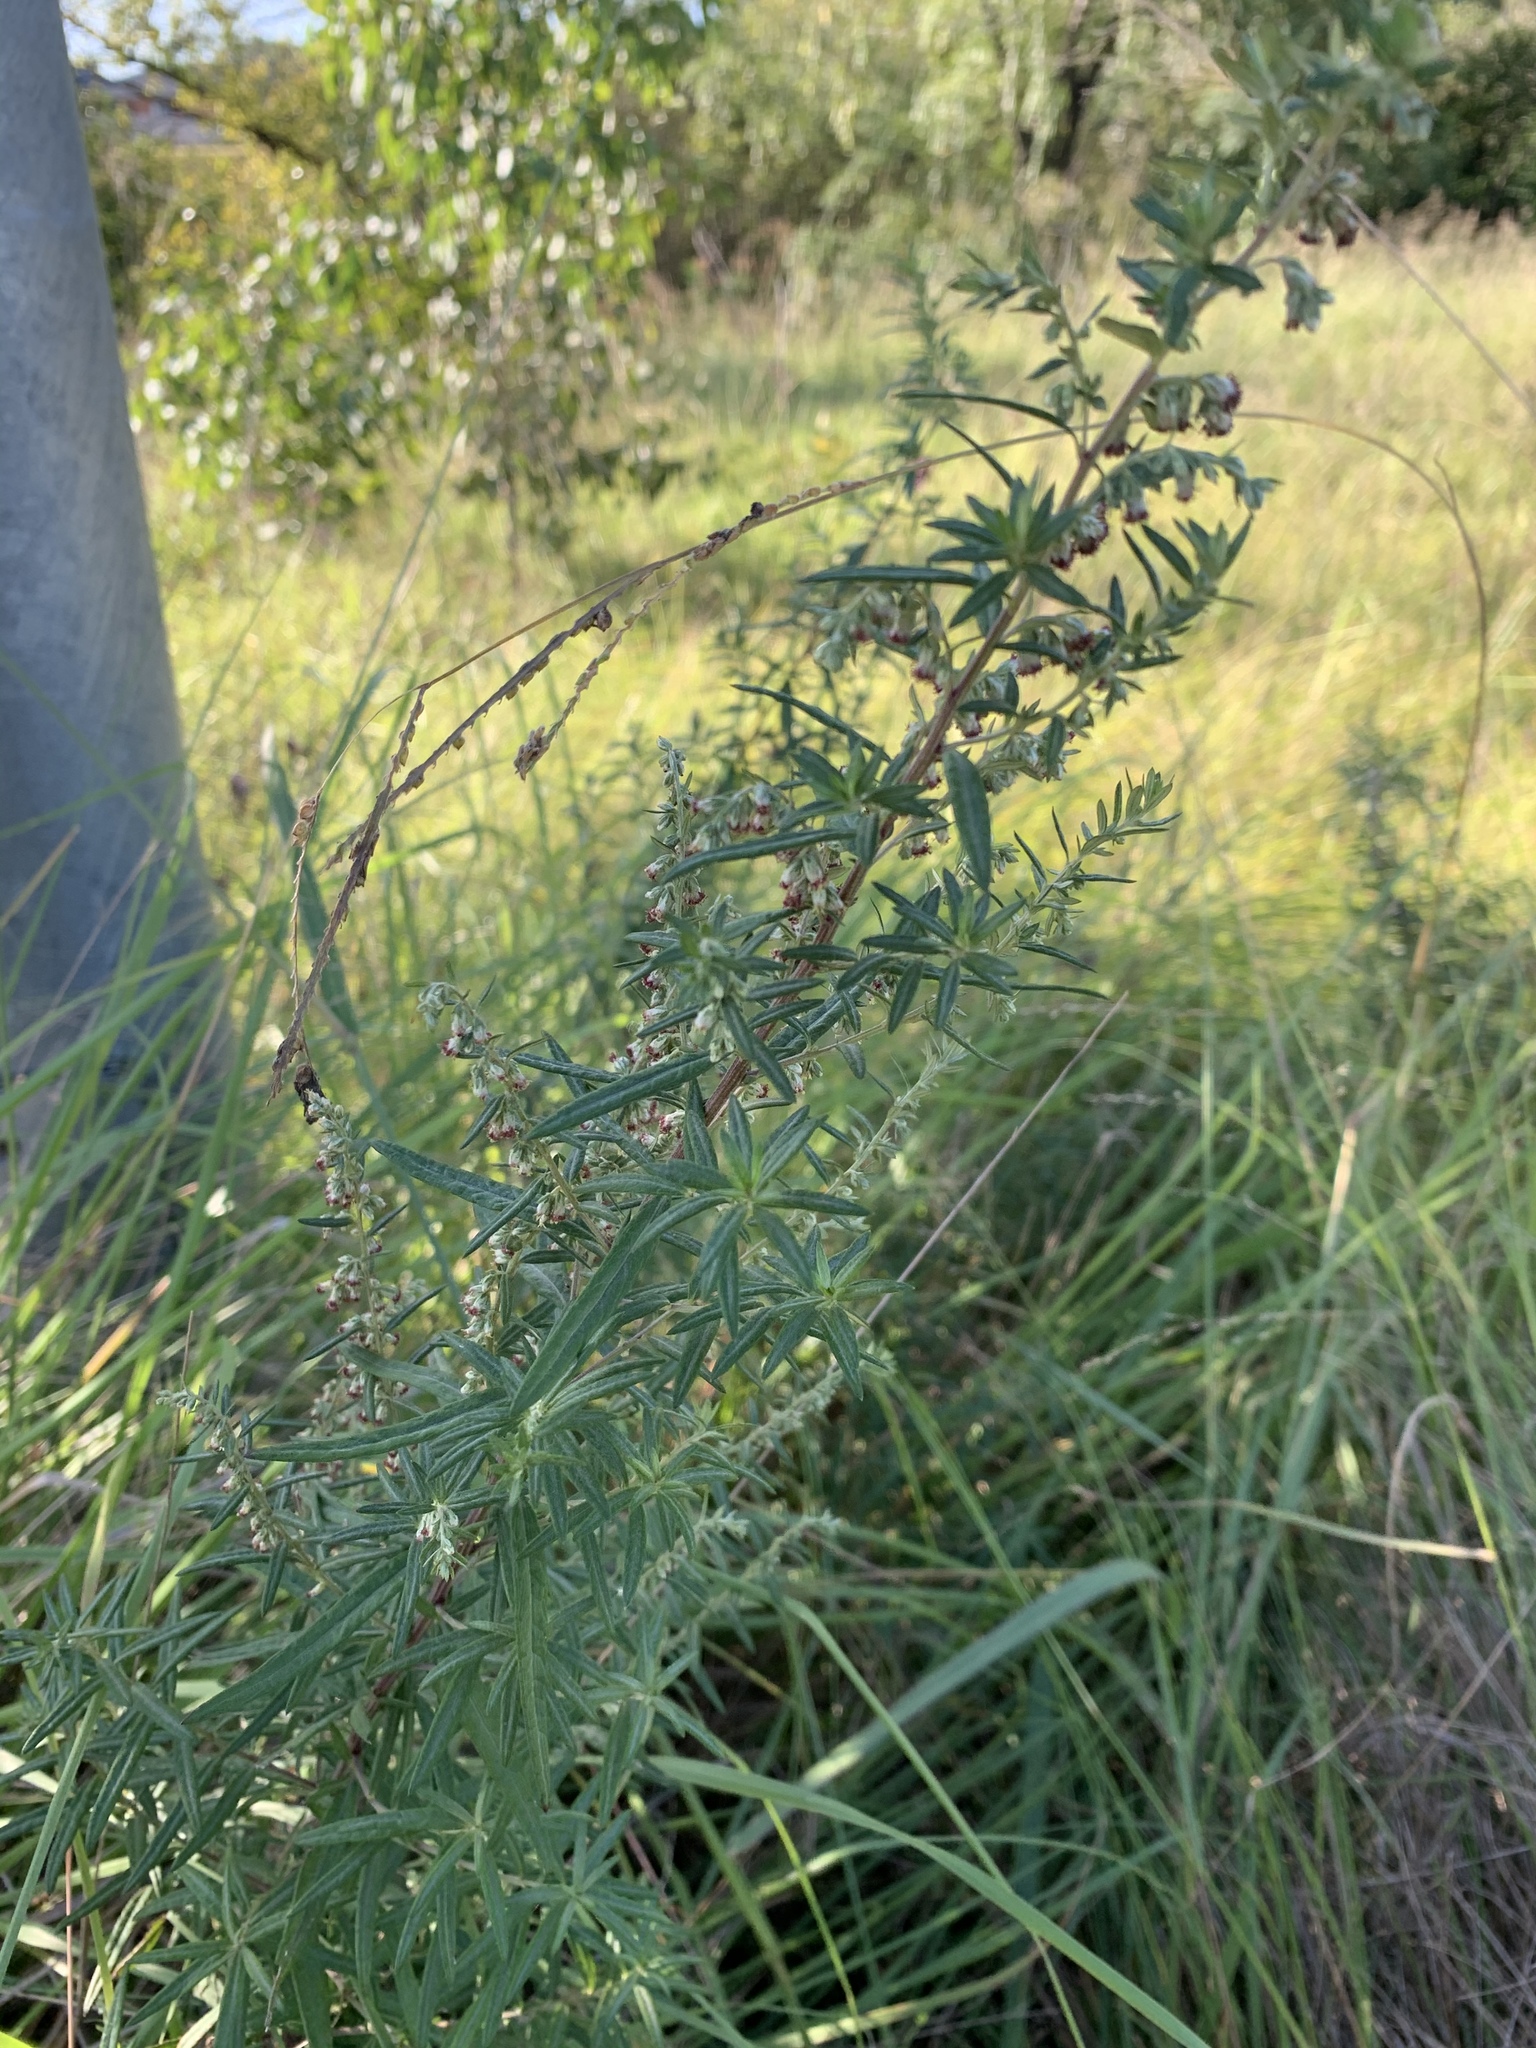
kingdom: Plantae
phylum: Tracheophyta
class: Magnoliopsida
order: Asterales
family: Asteraceae
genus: Artemisia
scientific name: Artemisia verlotiorum
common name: Chinese mugwort
